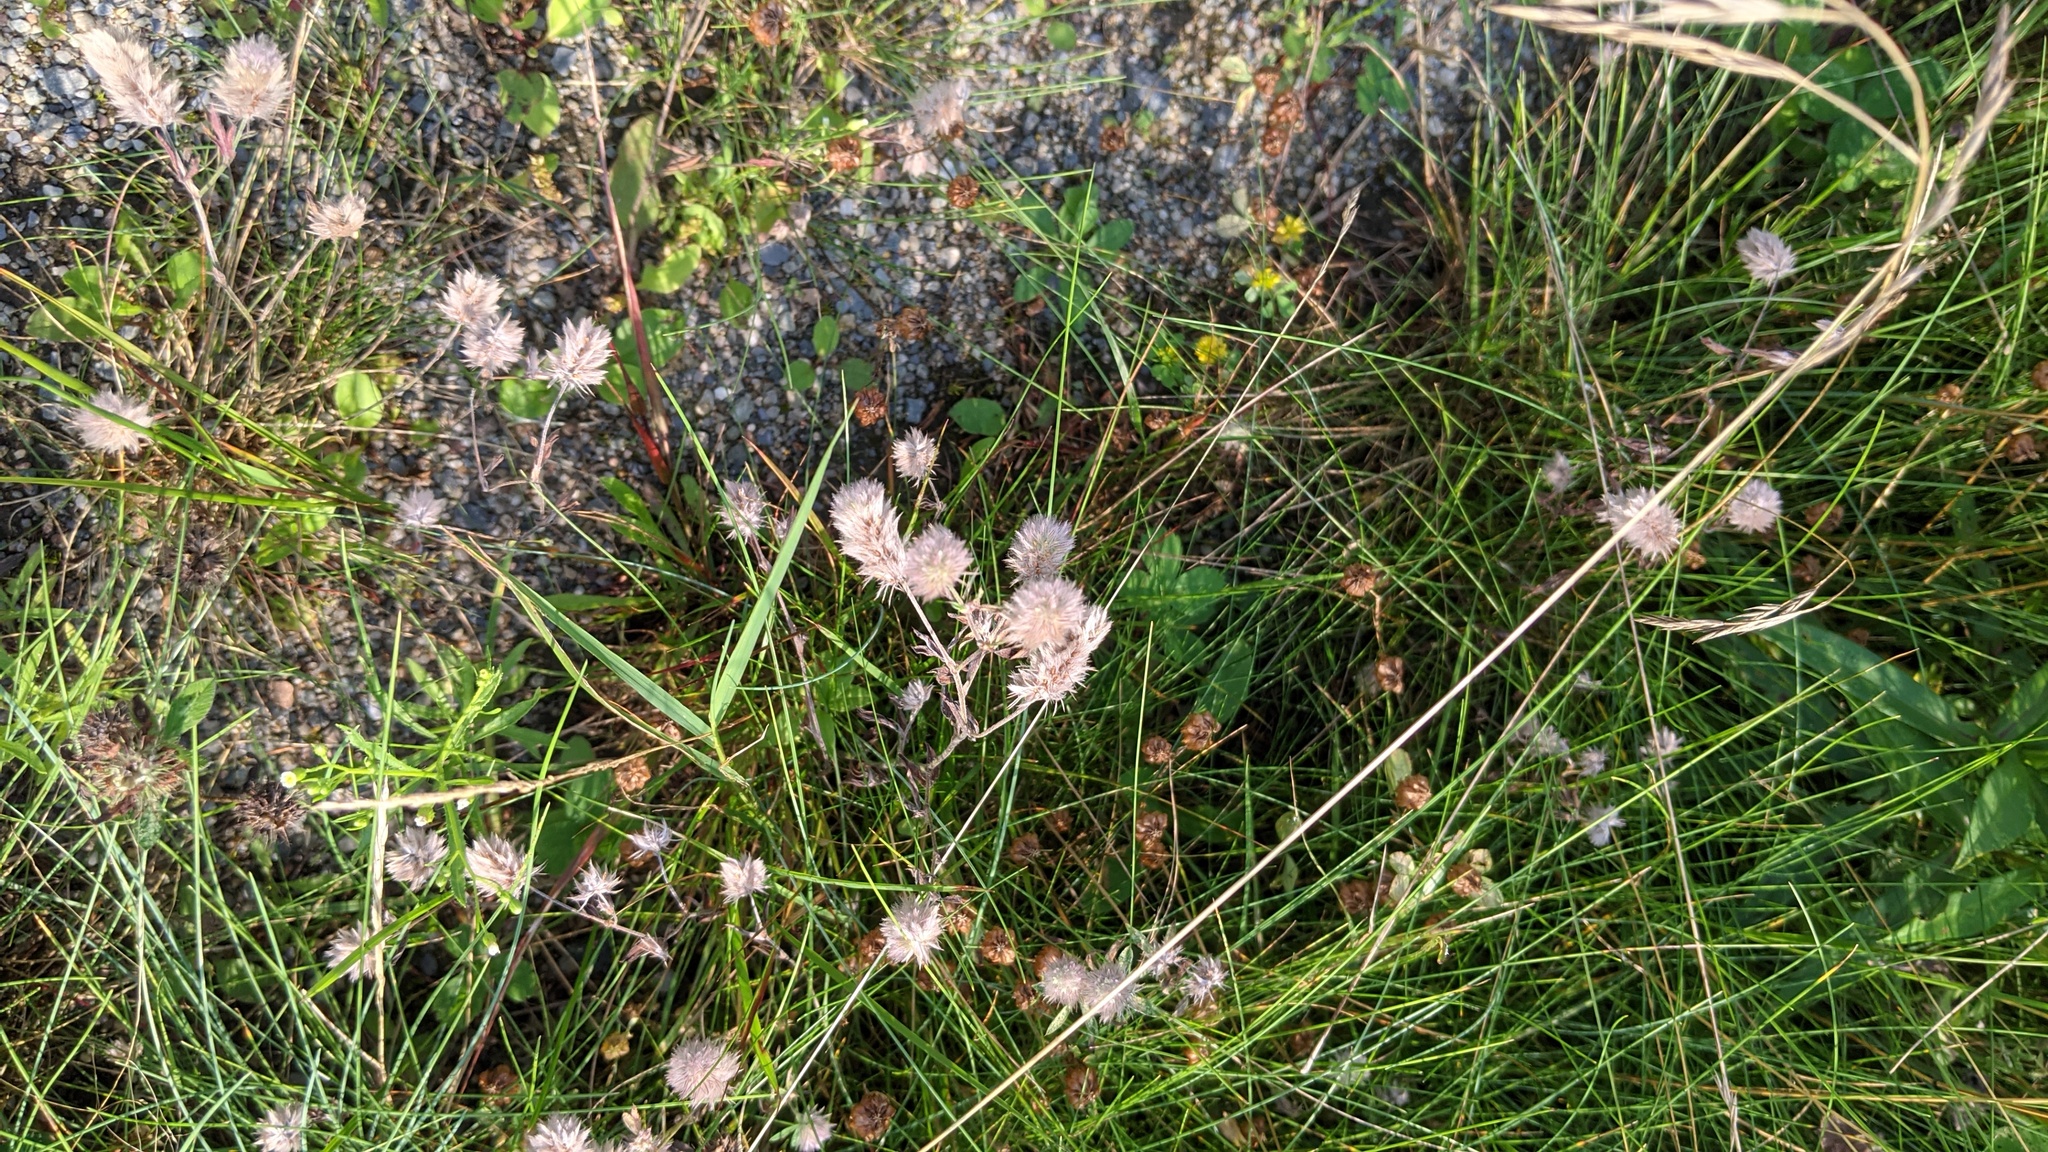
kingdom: Plantae
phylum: Tracheophyta
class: Magnoliopsida
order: Fabales
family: Fabaceae
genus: Trifolium
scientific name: Trifolium arvense
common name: Hare's-foot clover
